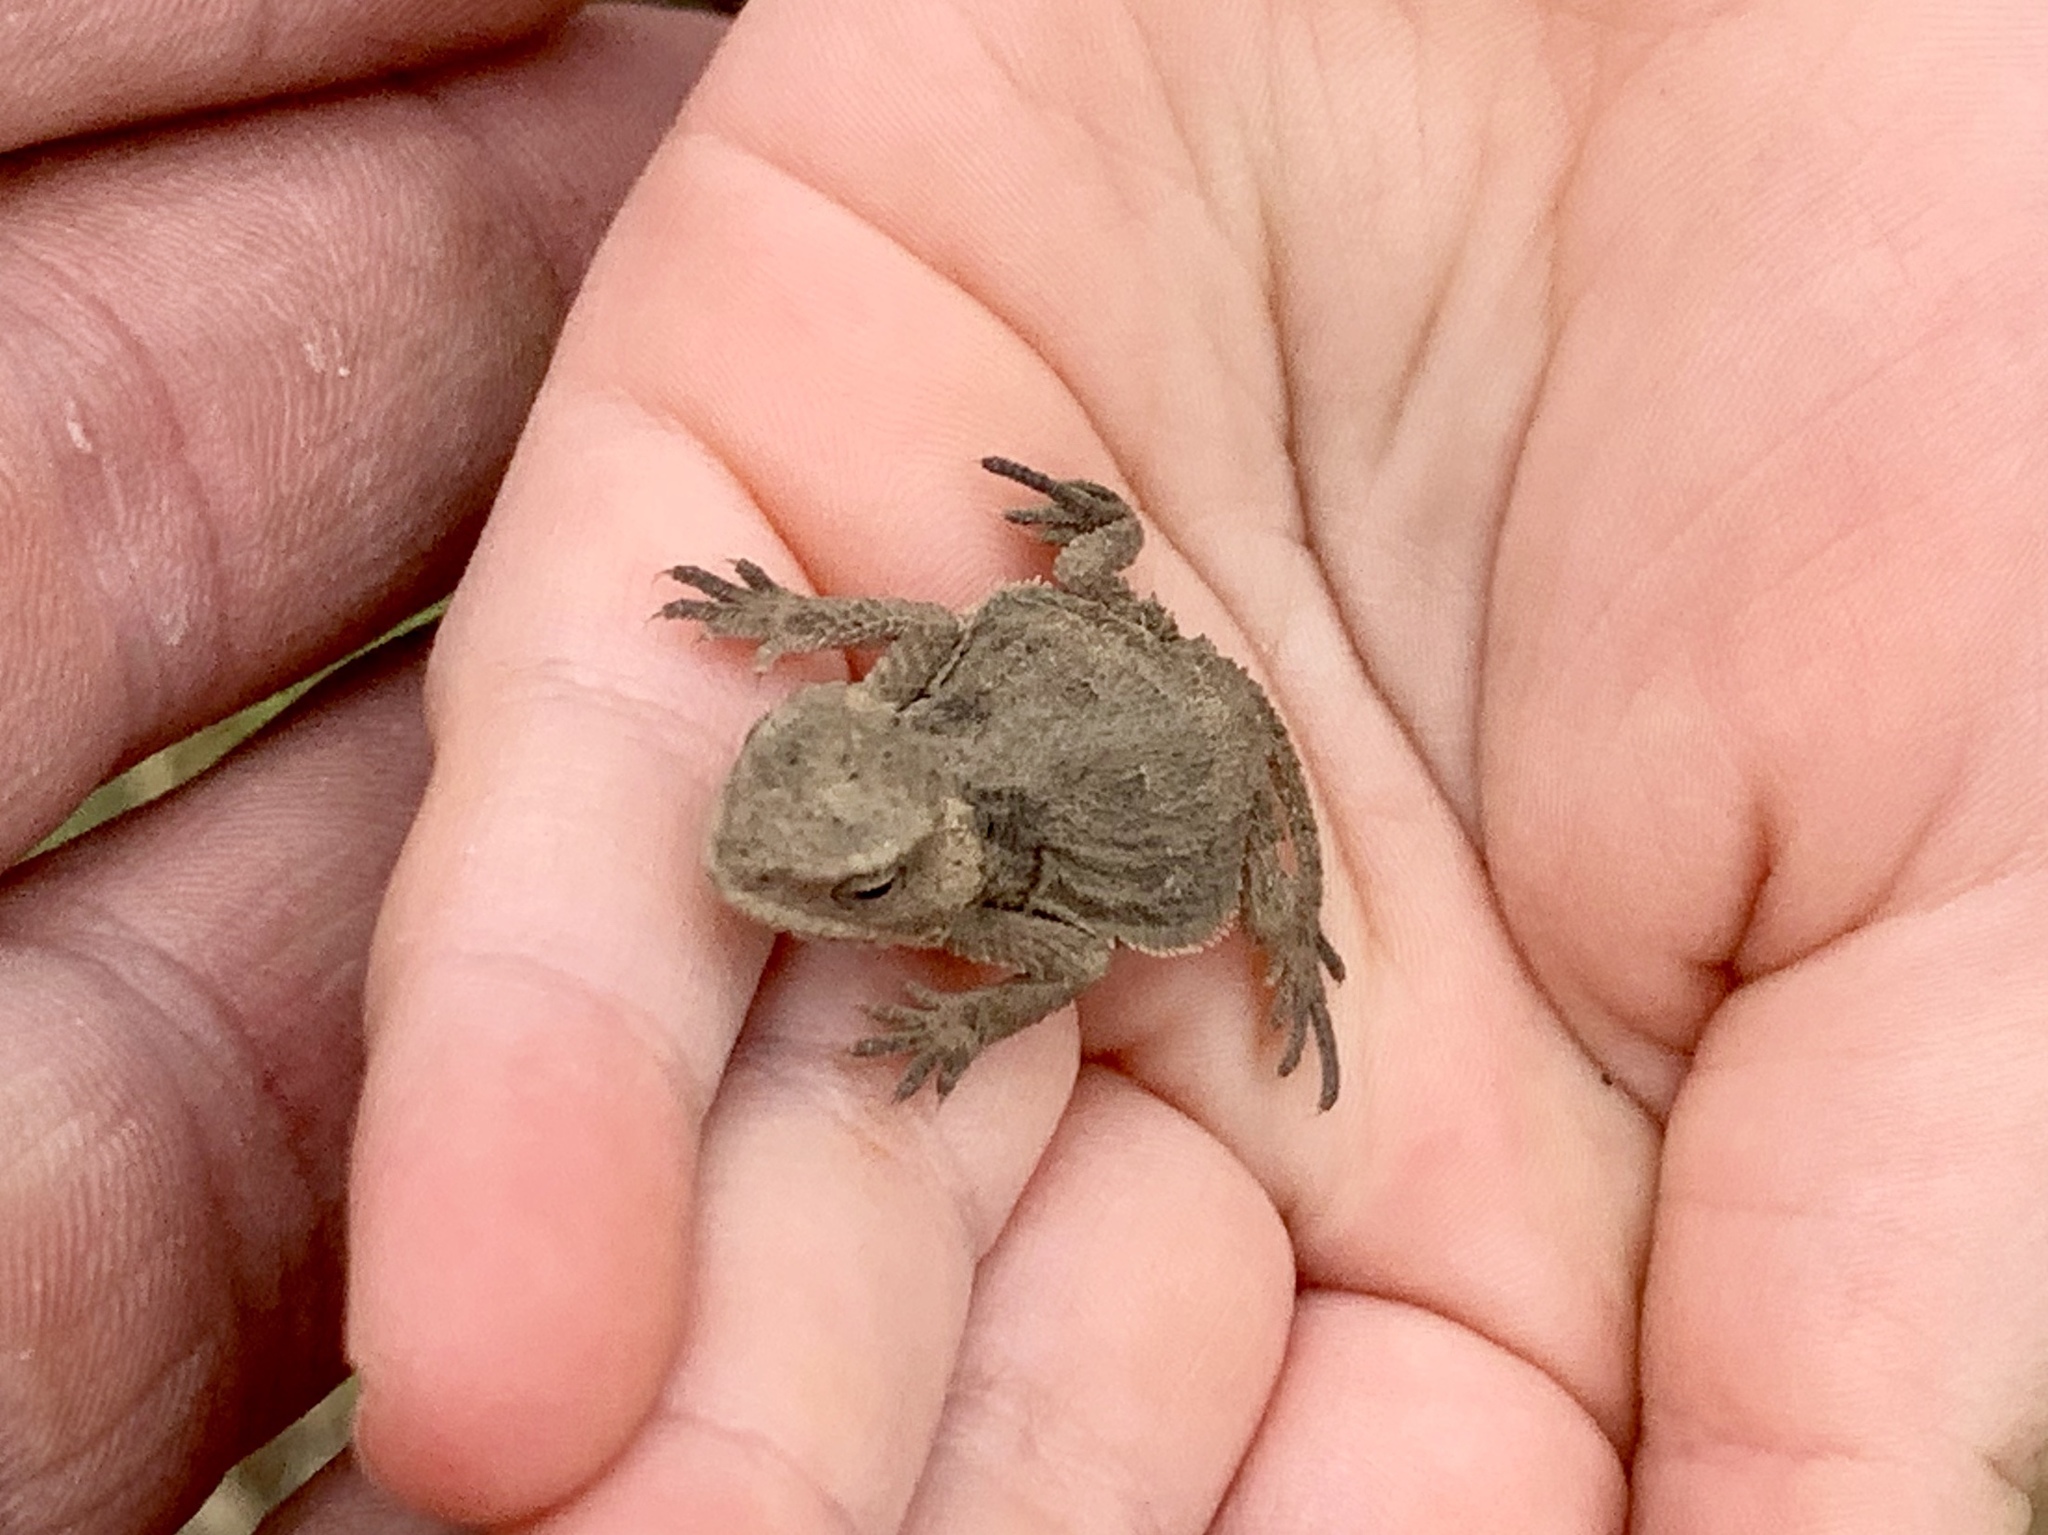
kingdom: Animalia
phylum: Chordata
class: Squamata
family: Phrynosomatidae
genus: Phrynosoma
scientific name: Phrynosoma hernandesi
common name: Greater short-horned lizard
